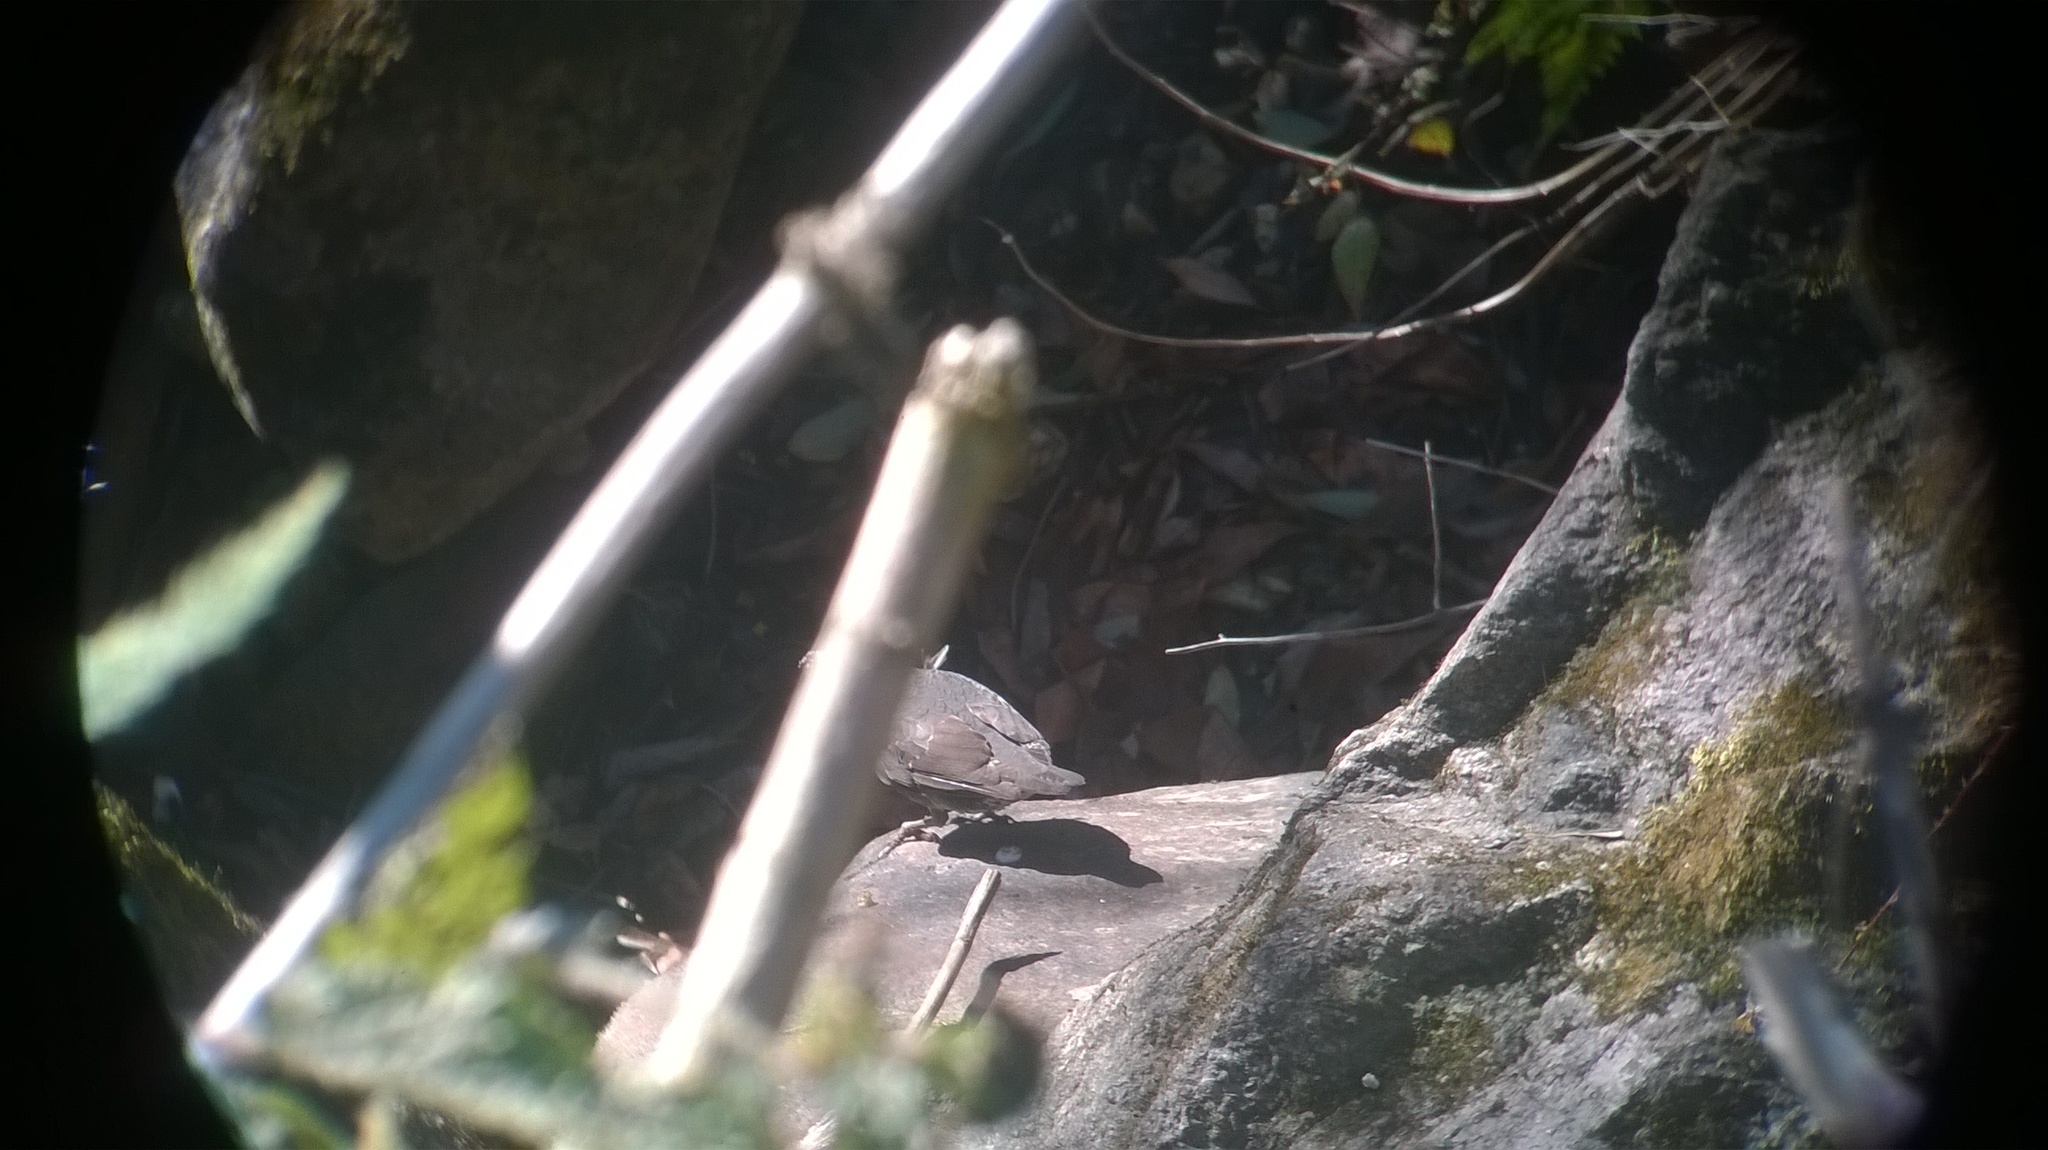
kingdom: Animalia
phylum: Chordata
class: Aves
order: Passeriformes
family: Turdidae
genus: Zoothera
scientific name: Zoothera monticola
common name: Long-billed thrush
